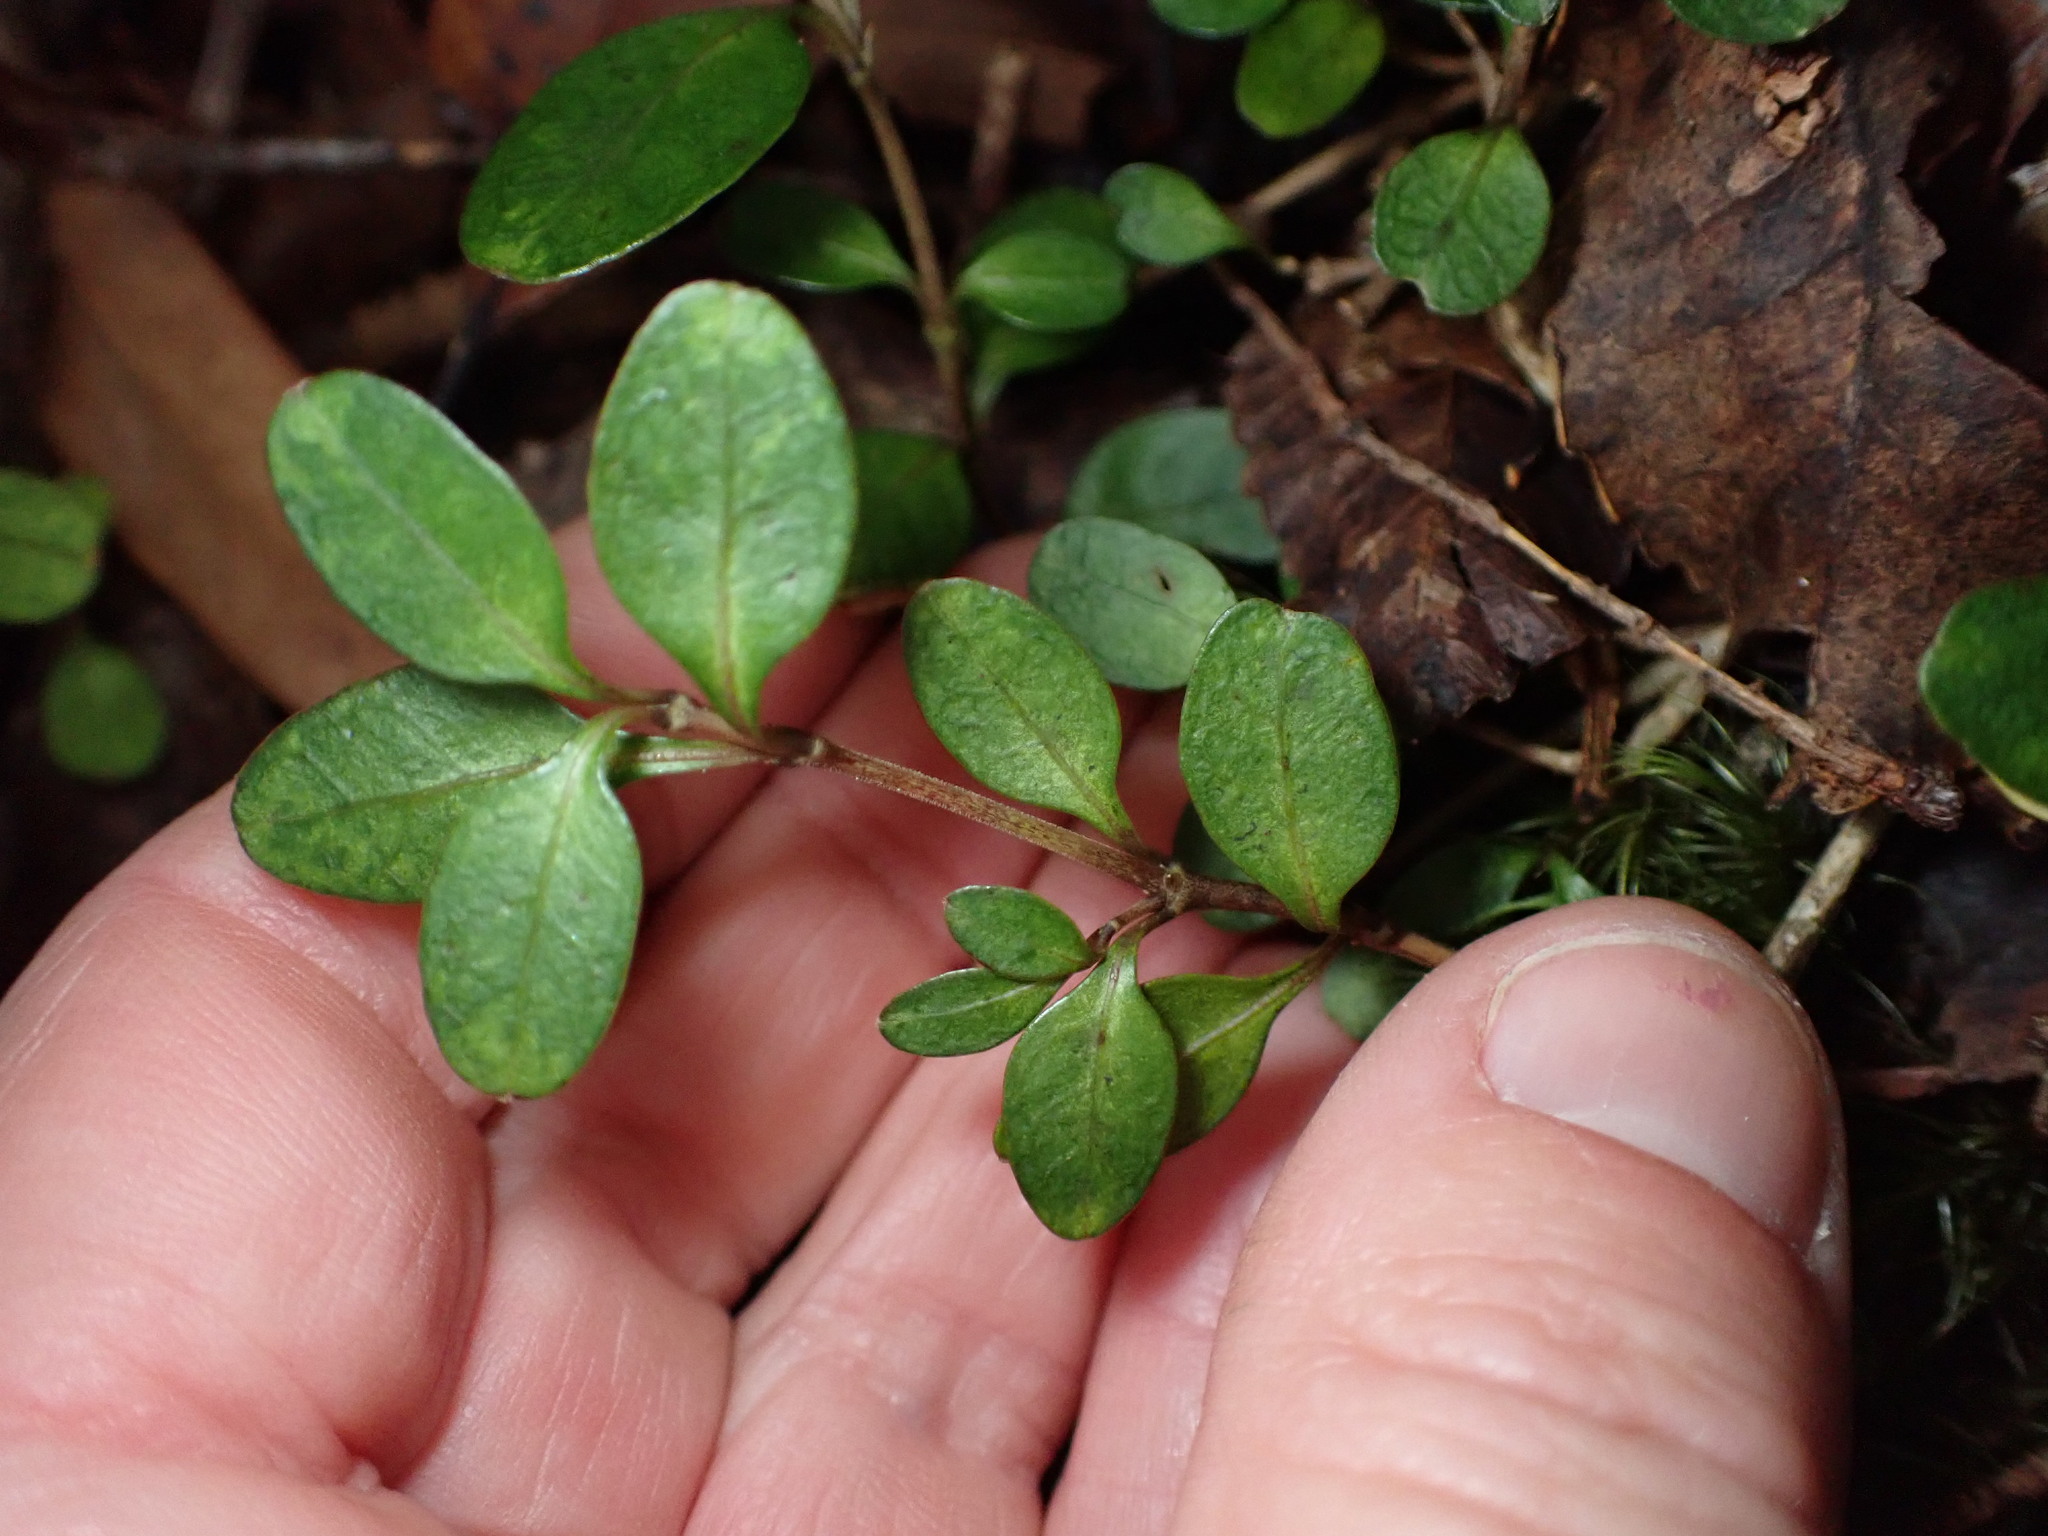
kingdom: Plantae
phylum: Tracheophyta
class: Magnoliopsida
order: Gentianales
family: Rubiaceae
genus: Coprosma
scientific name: Coprosma colensoi
